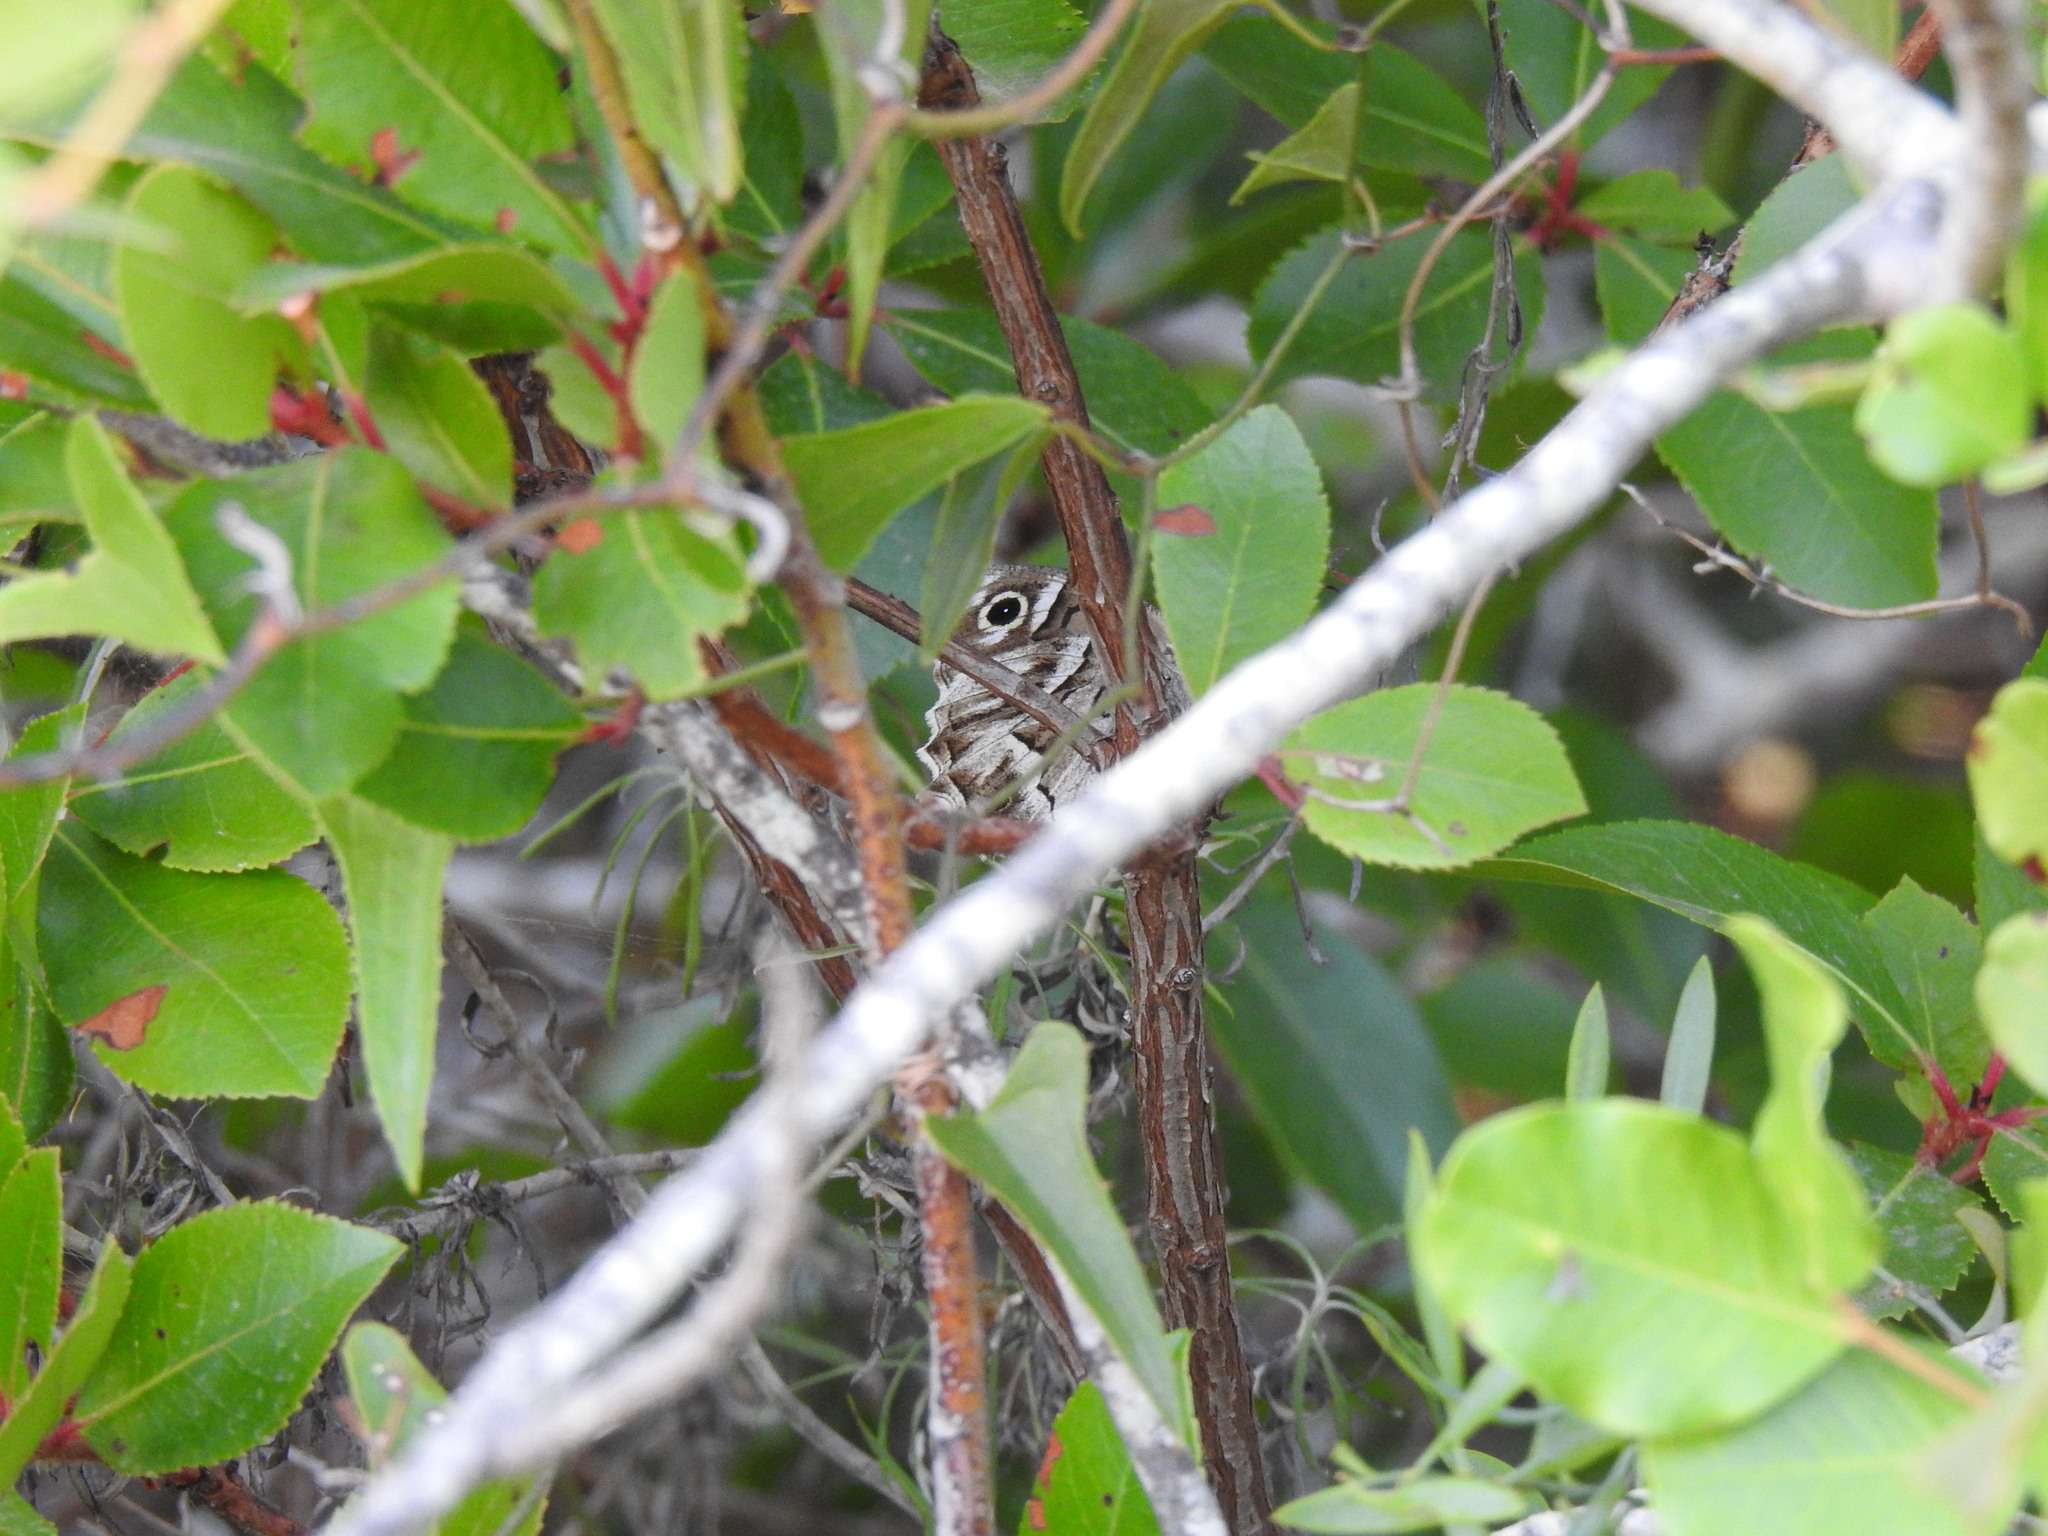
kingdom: Animalia
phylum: Arthropoda
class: Insecta
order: Lepidoptera
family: Nymphalidae
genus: Hipparchia
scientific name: Hipparchia fidia
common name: Striped grayling
